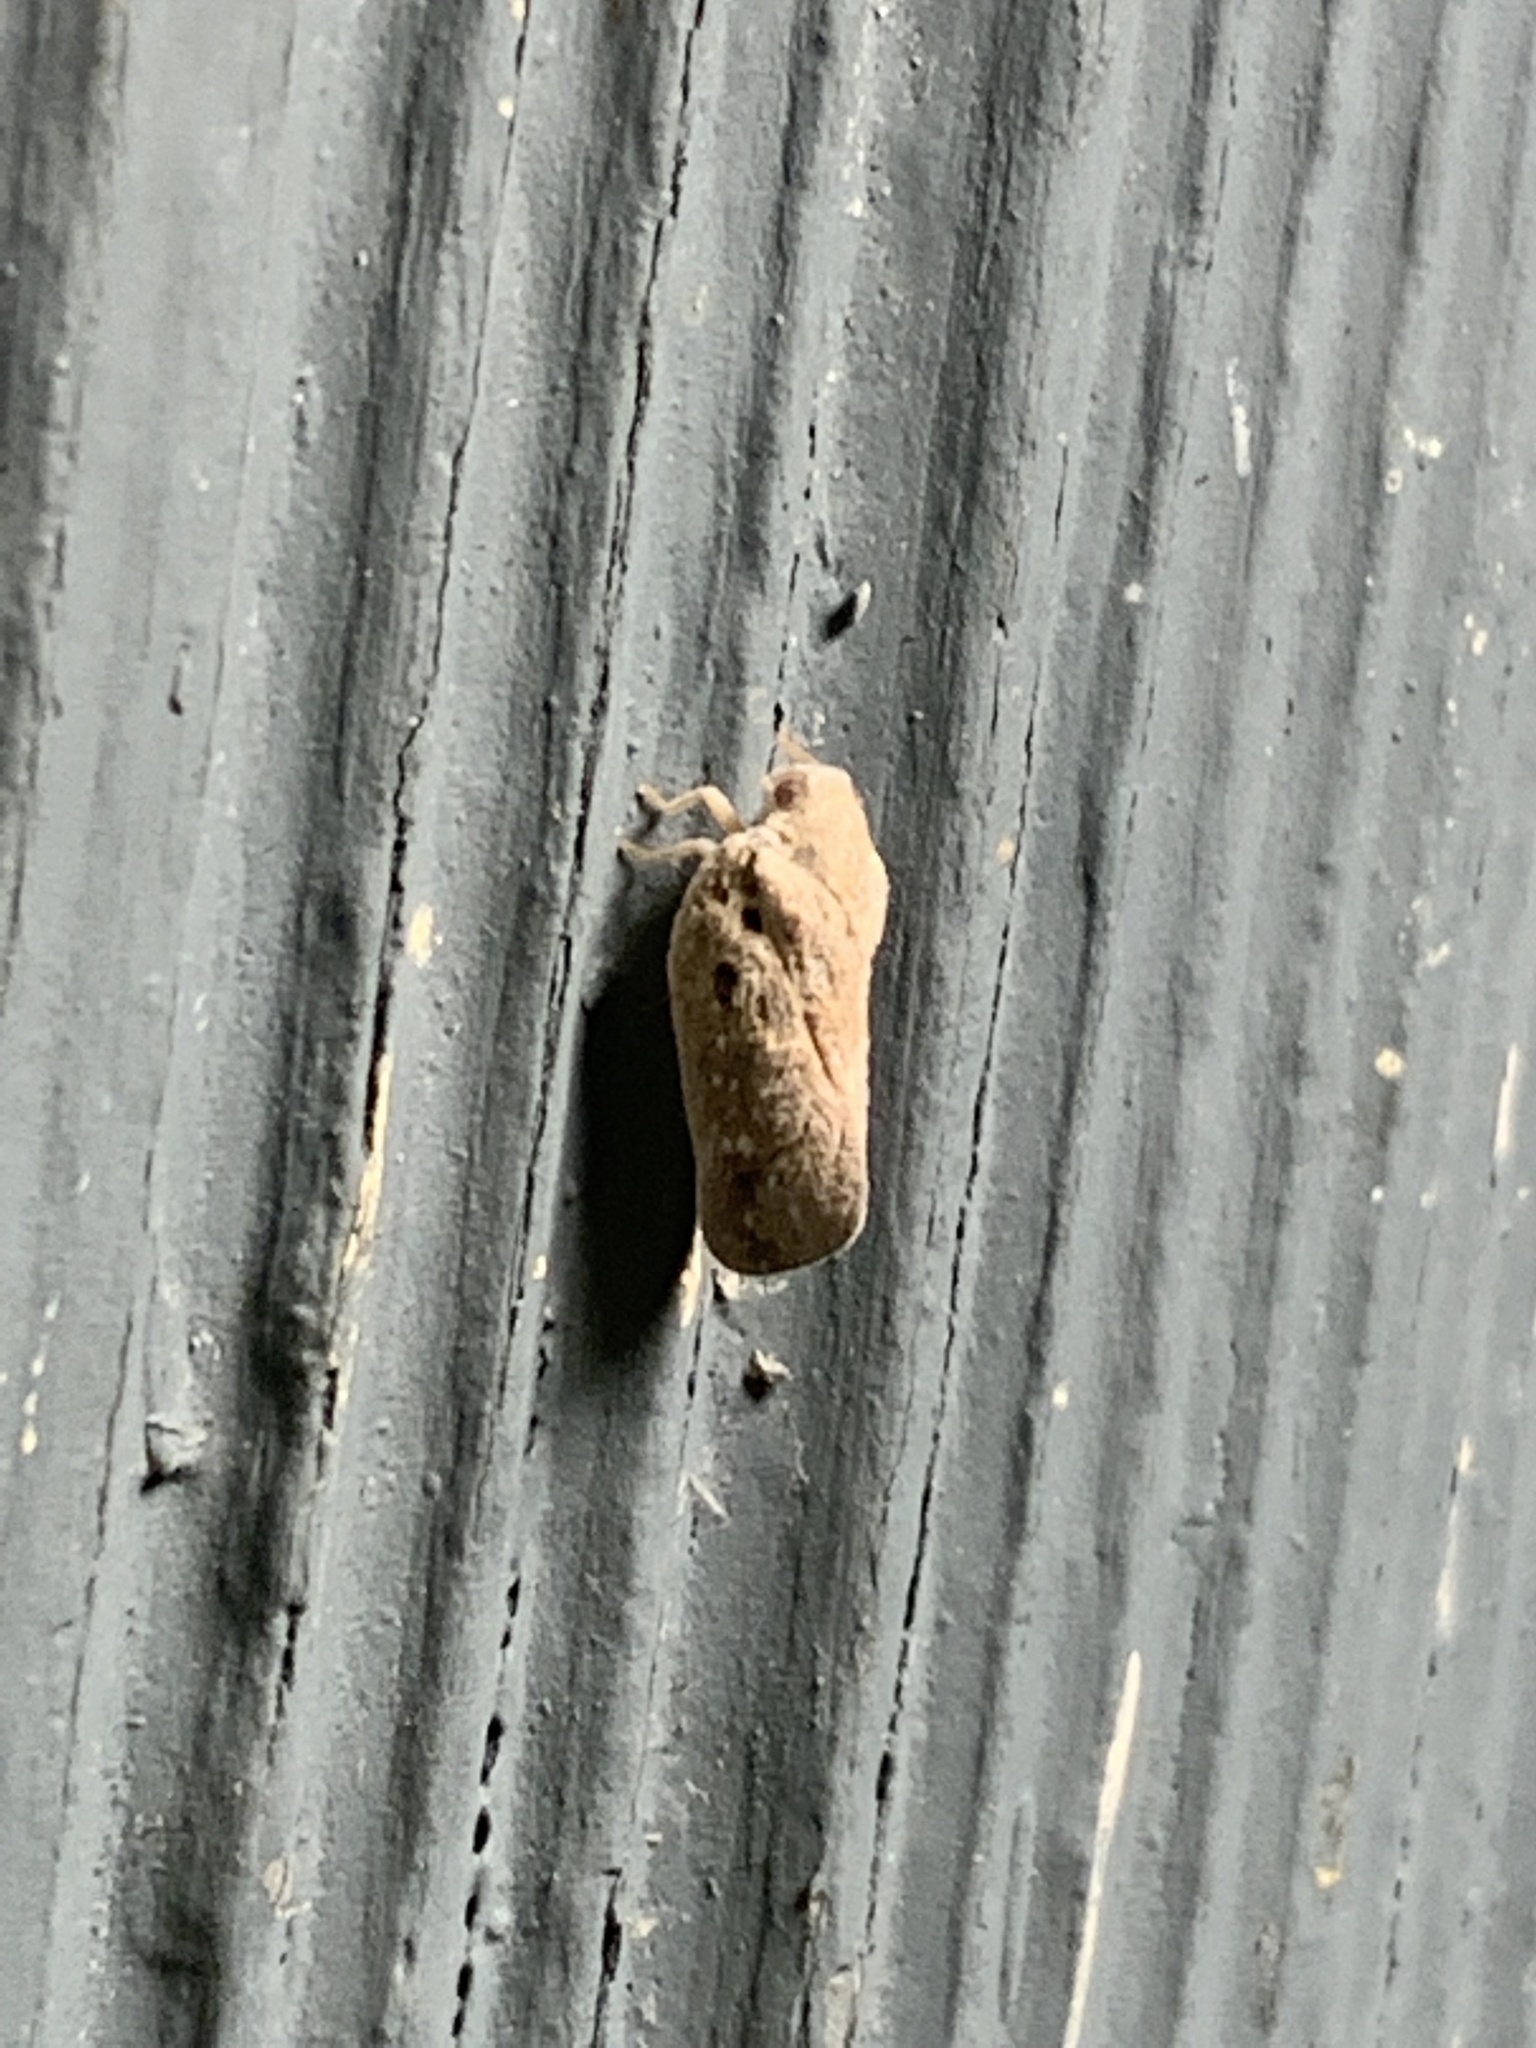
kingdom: Animalia
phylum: Arthropoda
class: Insecta
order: Hemiptera
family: Flatidae
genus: Metcalfa
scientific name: Metcalfa pruinosa
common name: Citrus flatid planthopper
